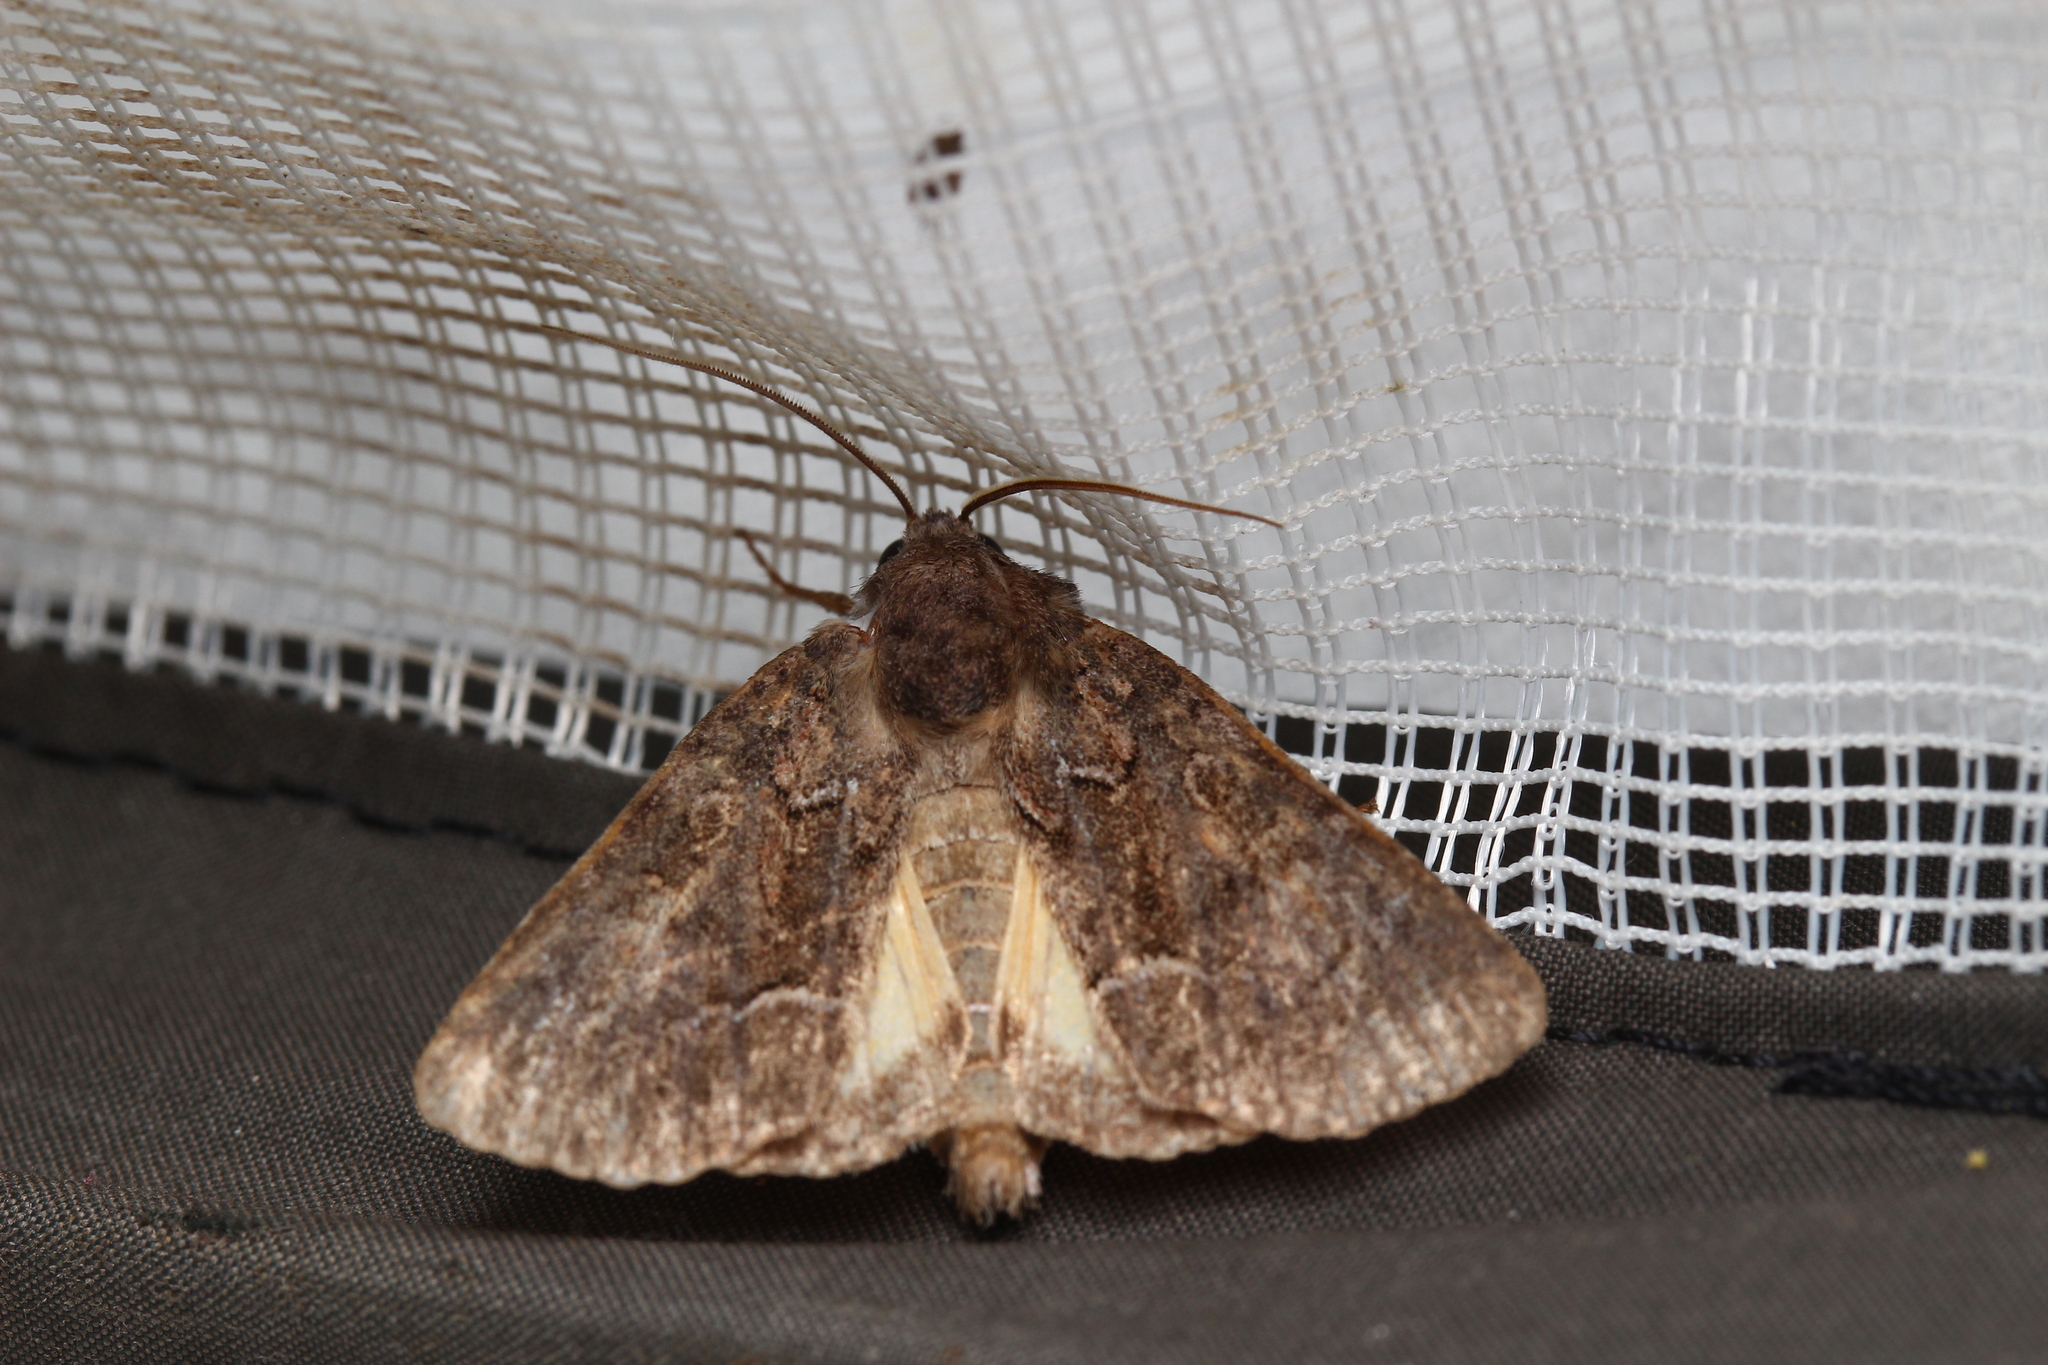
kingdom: Animalia
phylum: Arthropoda
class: Insecta
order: Lepidoptera
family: Noctuidae
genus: Thalpophila
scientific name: Thalpophila matura
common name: Straw underwing
